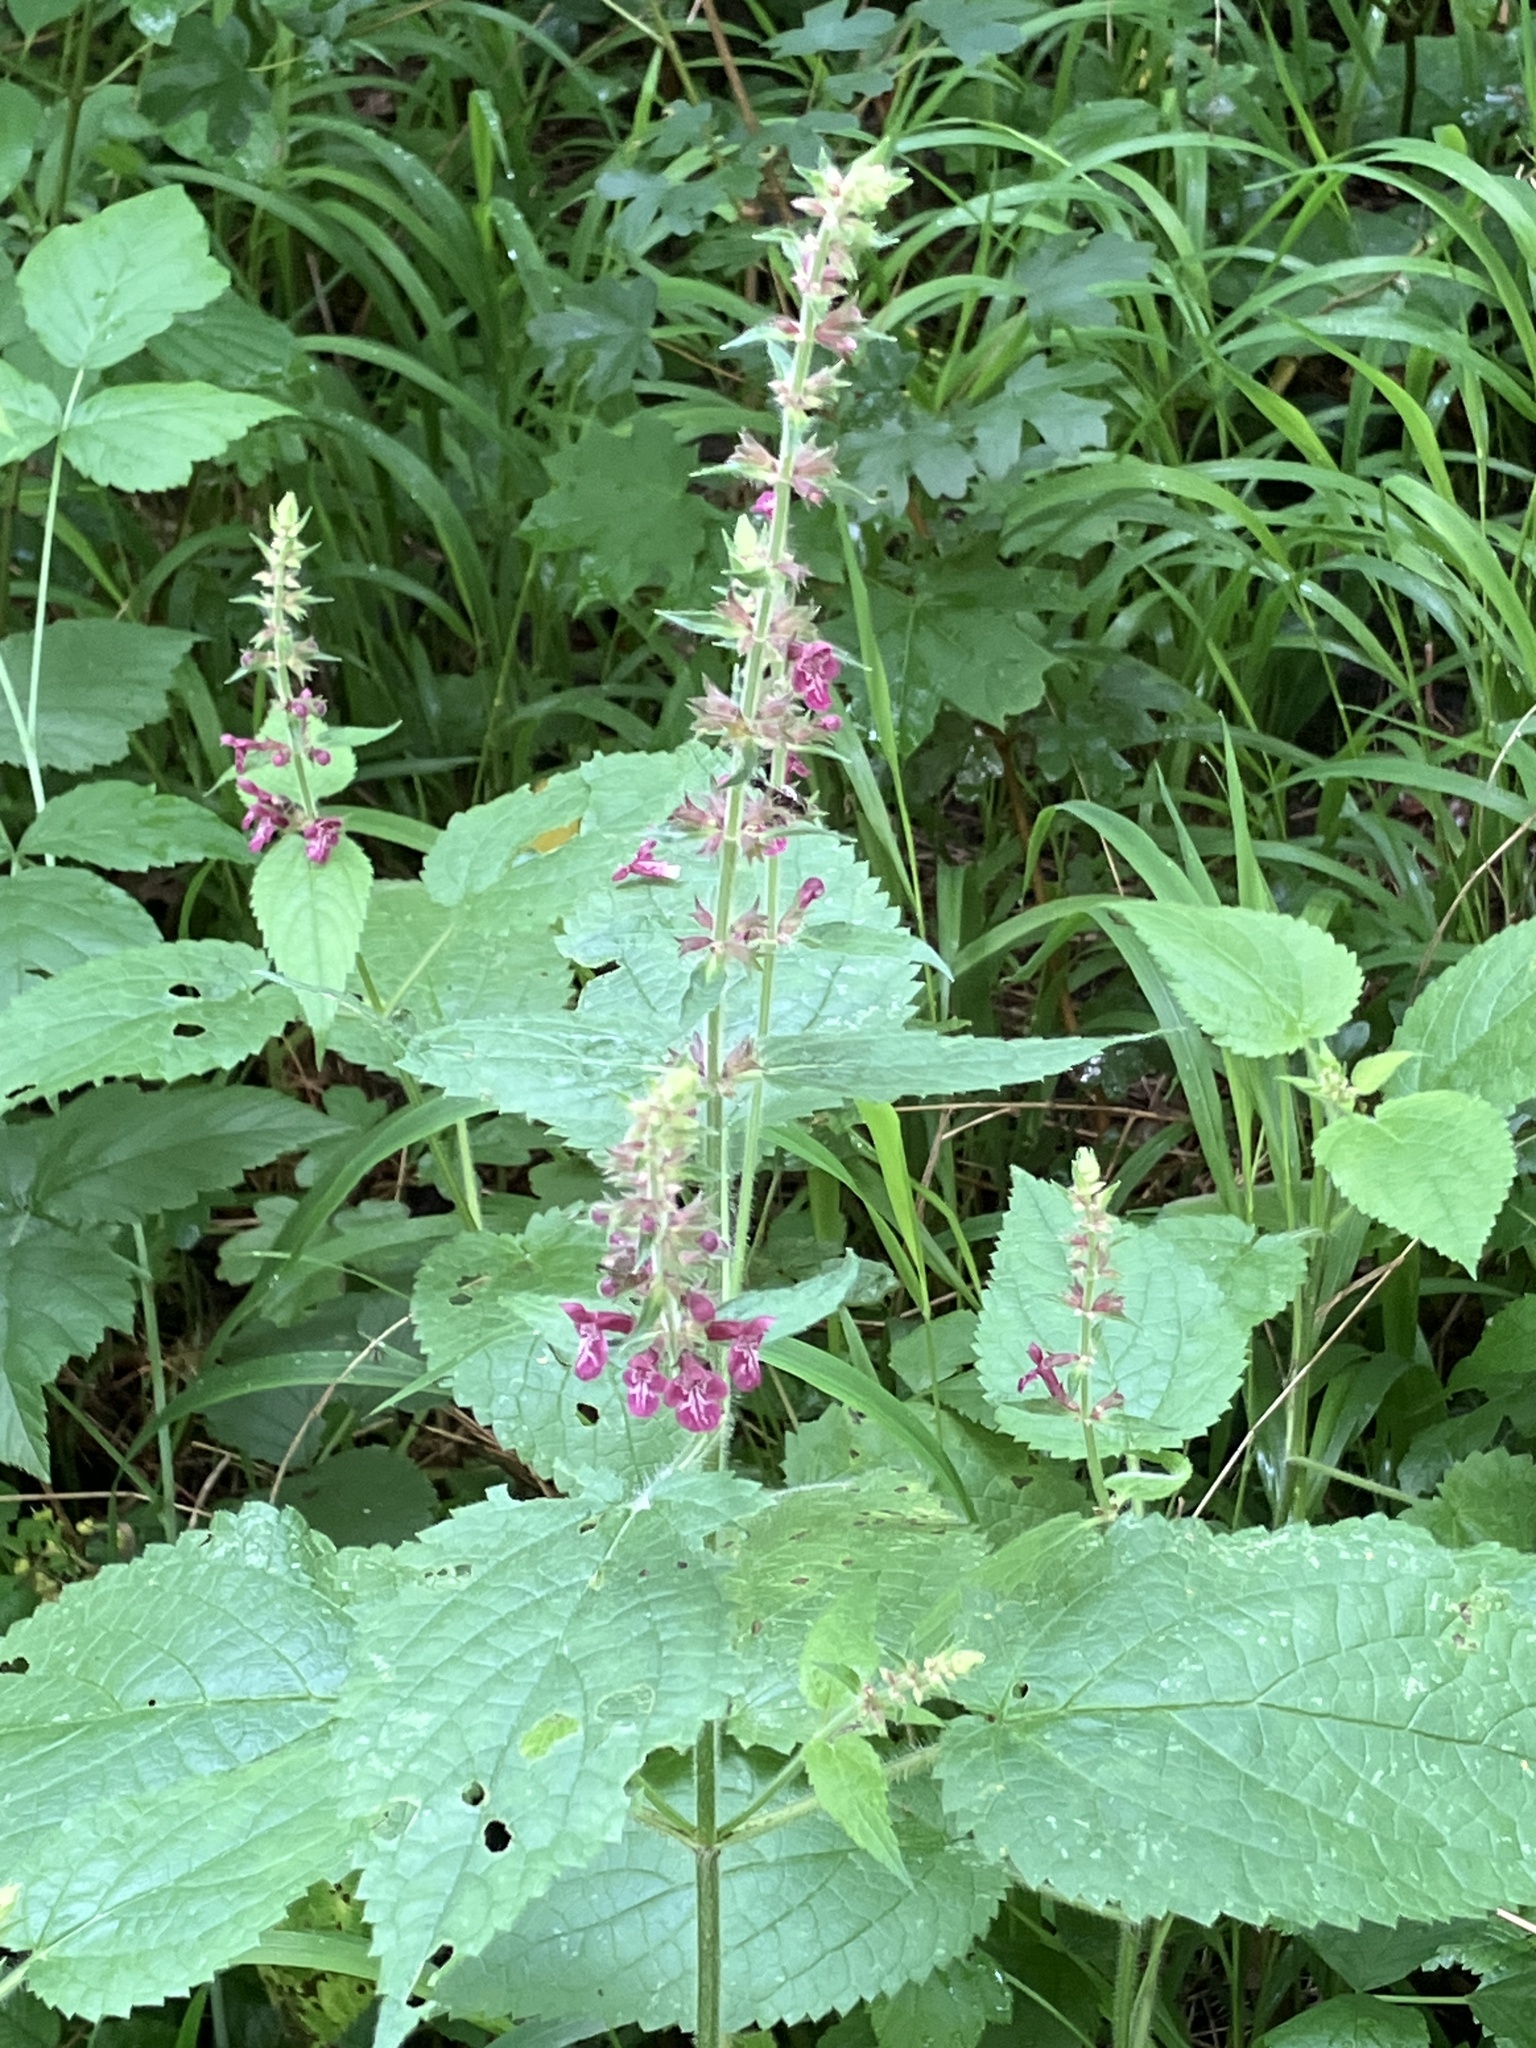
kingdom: Plantae
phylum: Tracheophyta
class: Magnoliopsida
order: Lamiales
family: Lamiaceae
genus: Stachys
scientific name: Stachys sylvatica
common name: Hedge woundwort
